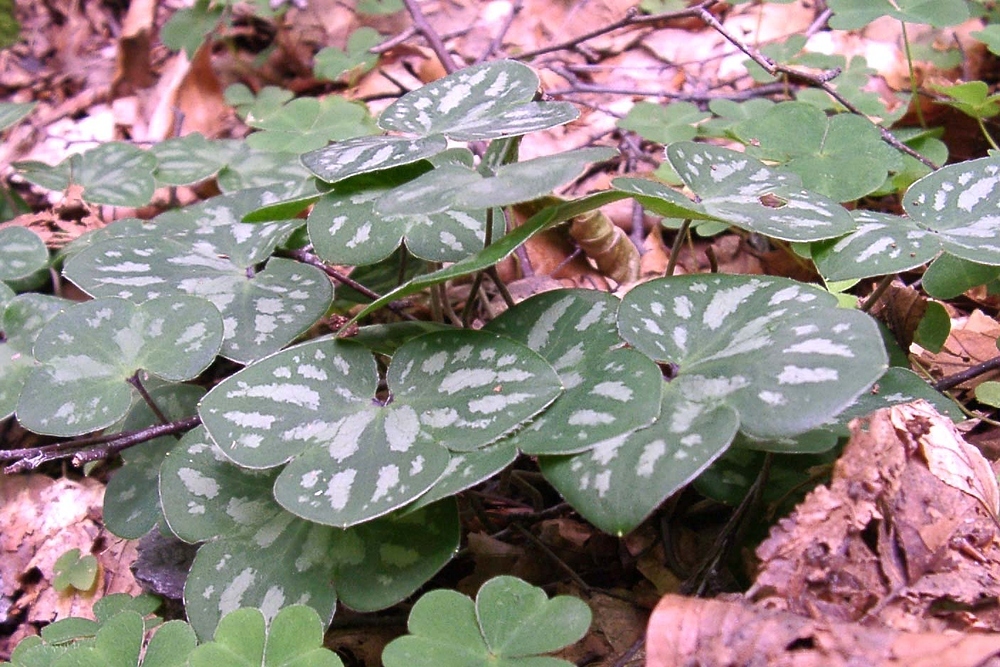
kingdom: Plantae
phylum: Tracheophyta
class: Magnoliopsida
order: Ranunculales
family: Ranunculaceae
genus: Hepatica
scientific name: Hepatica nobilis
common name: Liverleaf
